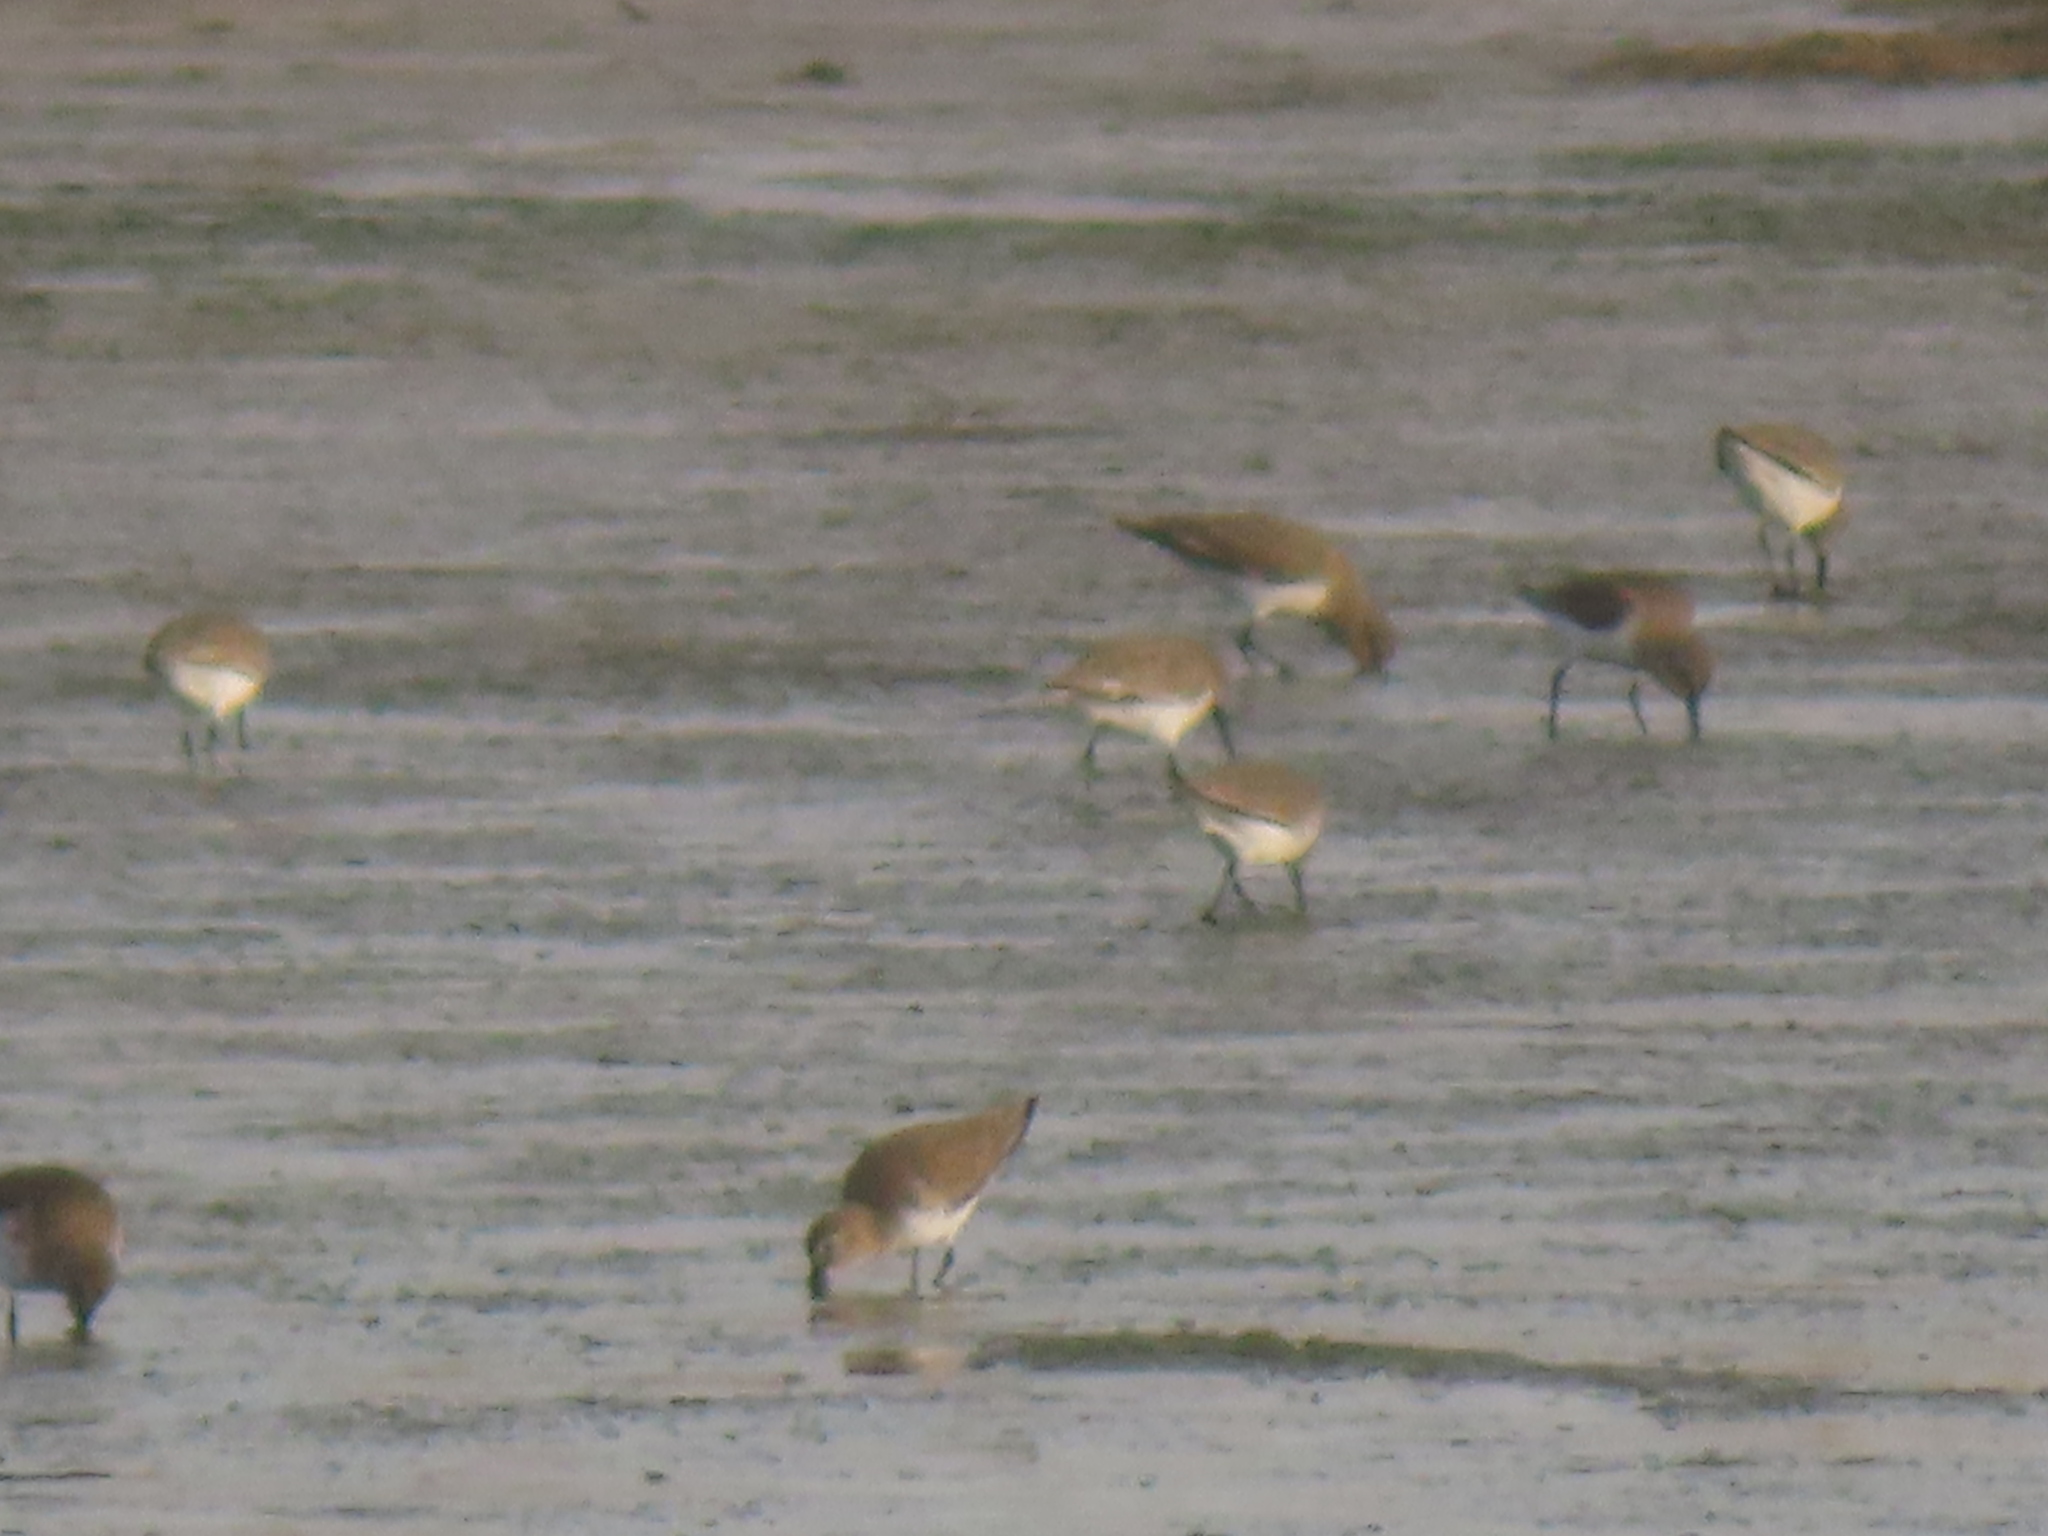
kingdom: Animalia
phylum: Chordata
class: Aves
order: Charadriiformes
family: Scolopacidae
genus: Calidris
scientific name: Calidris alpina
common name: Dunlin
